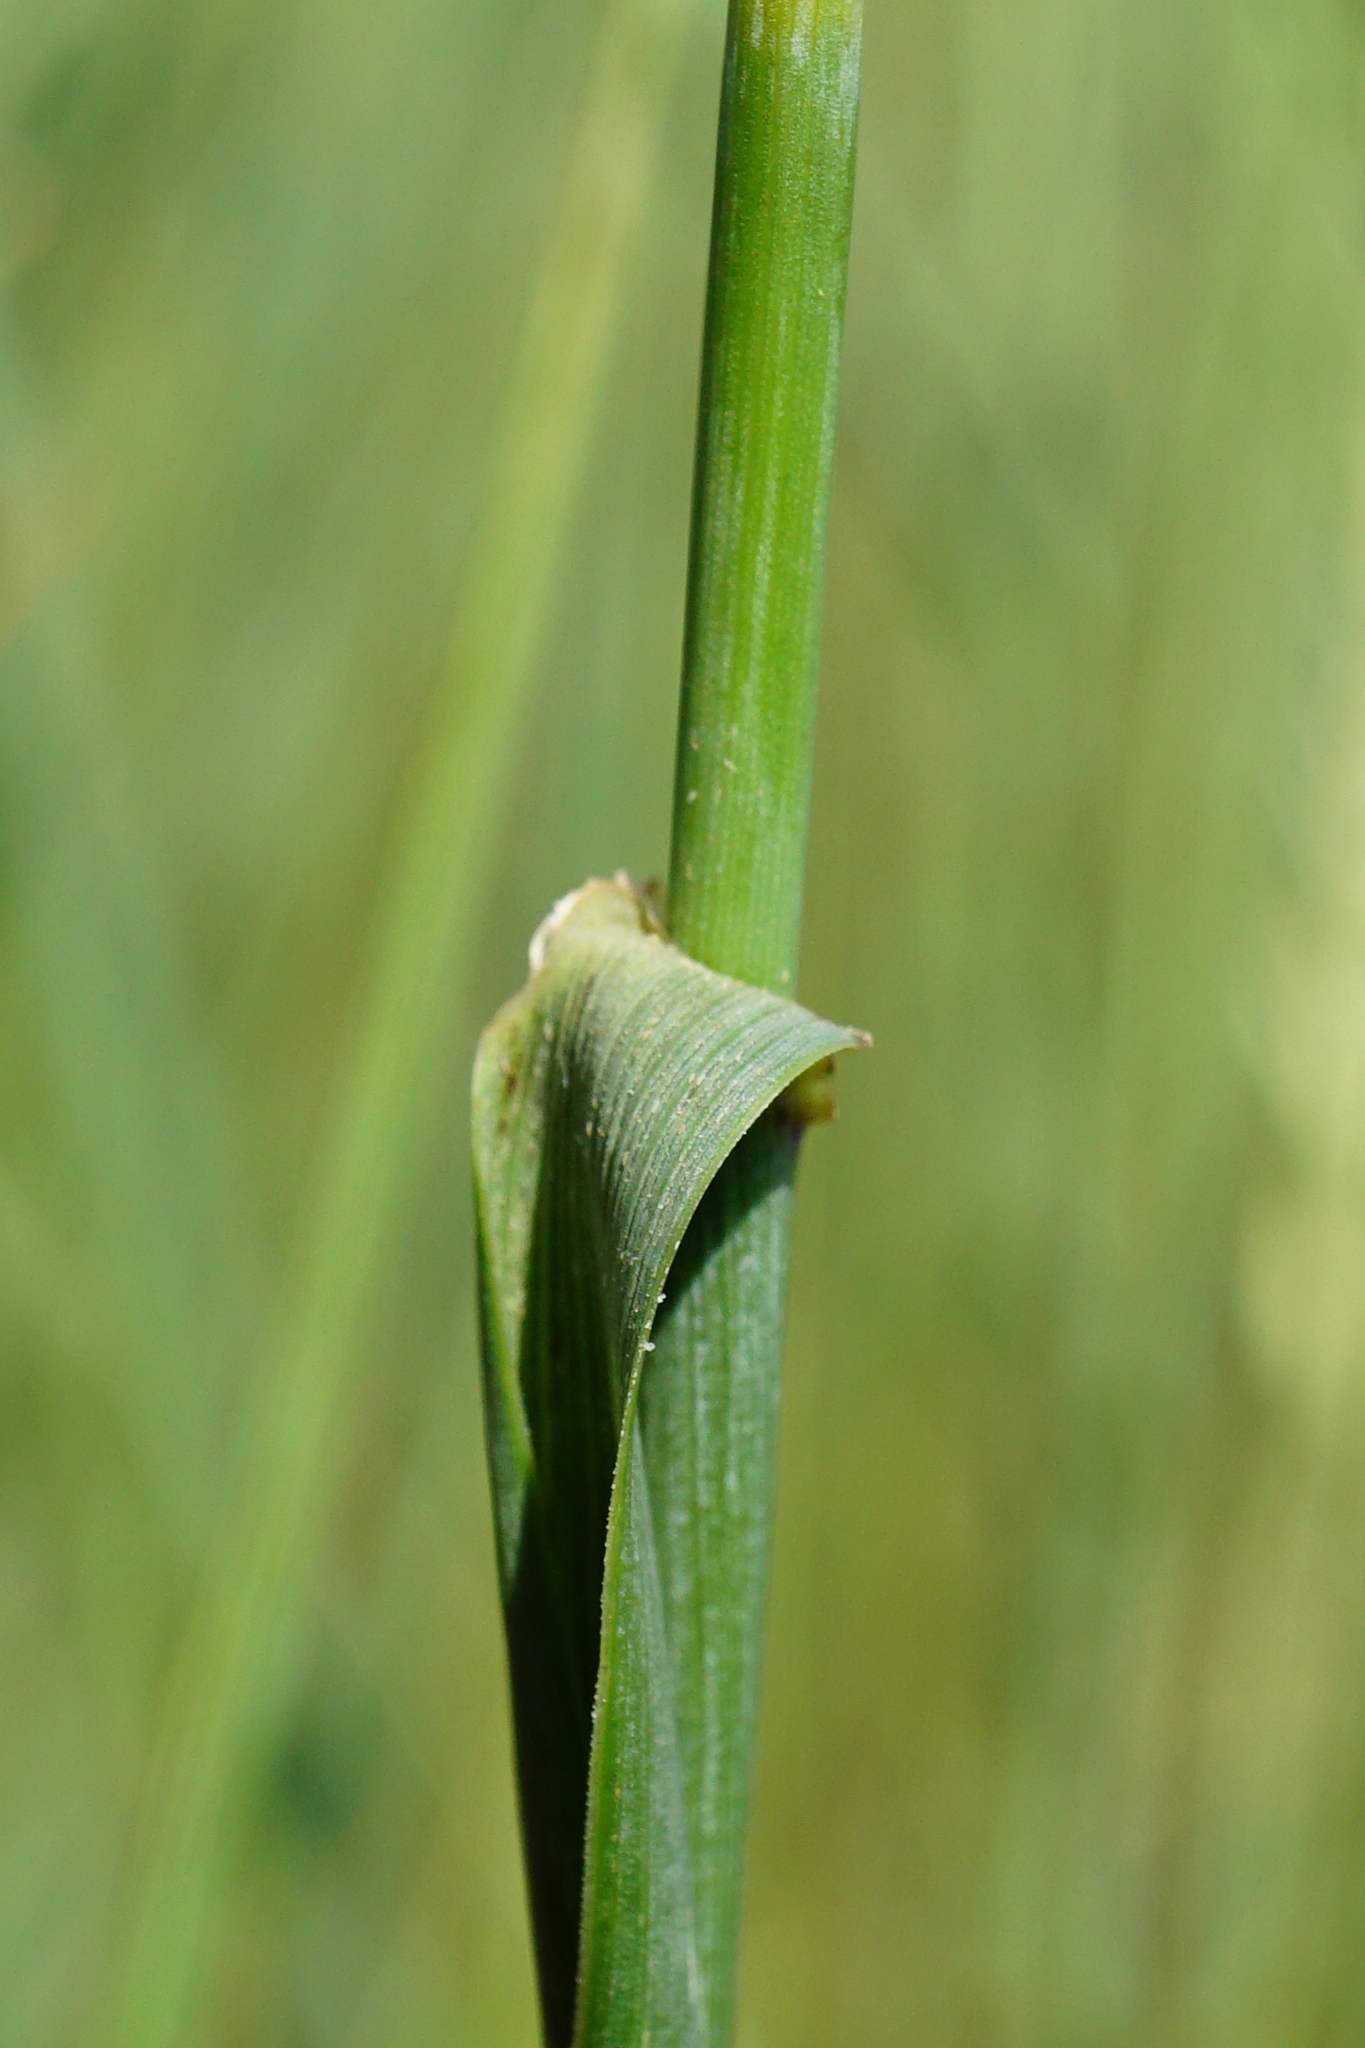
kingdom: Plantae
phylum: Tracheophyta
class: Liliopsida
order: Poales
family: Poaceae
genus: Elymus
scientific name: Elymus repens
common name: Quackgrass
